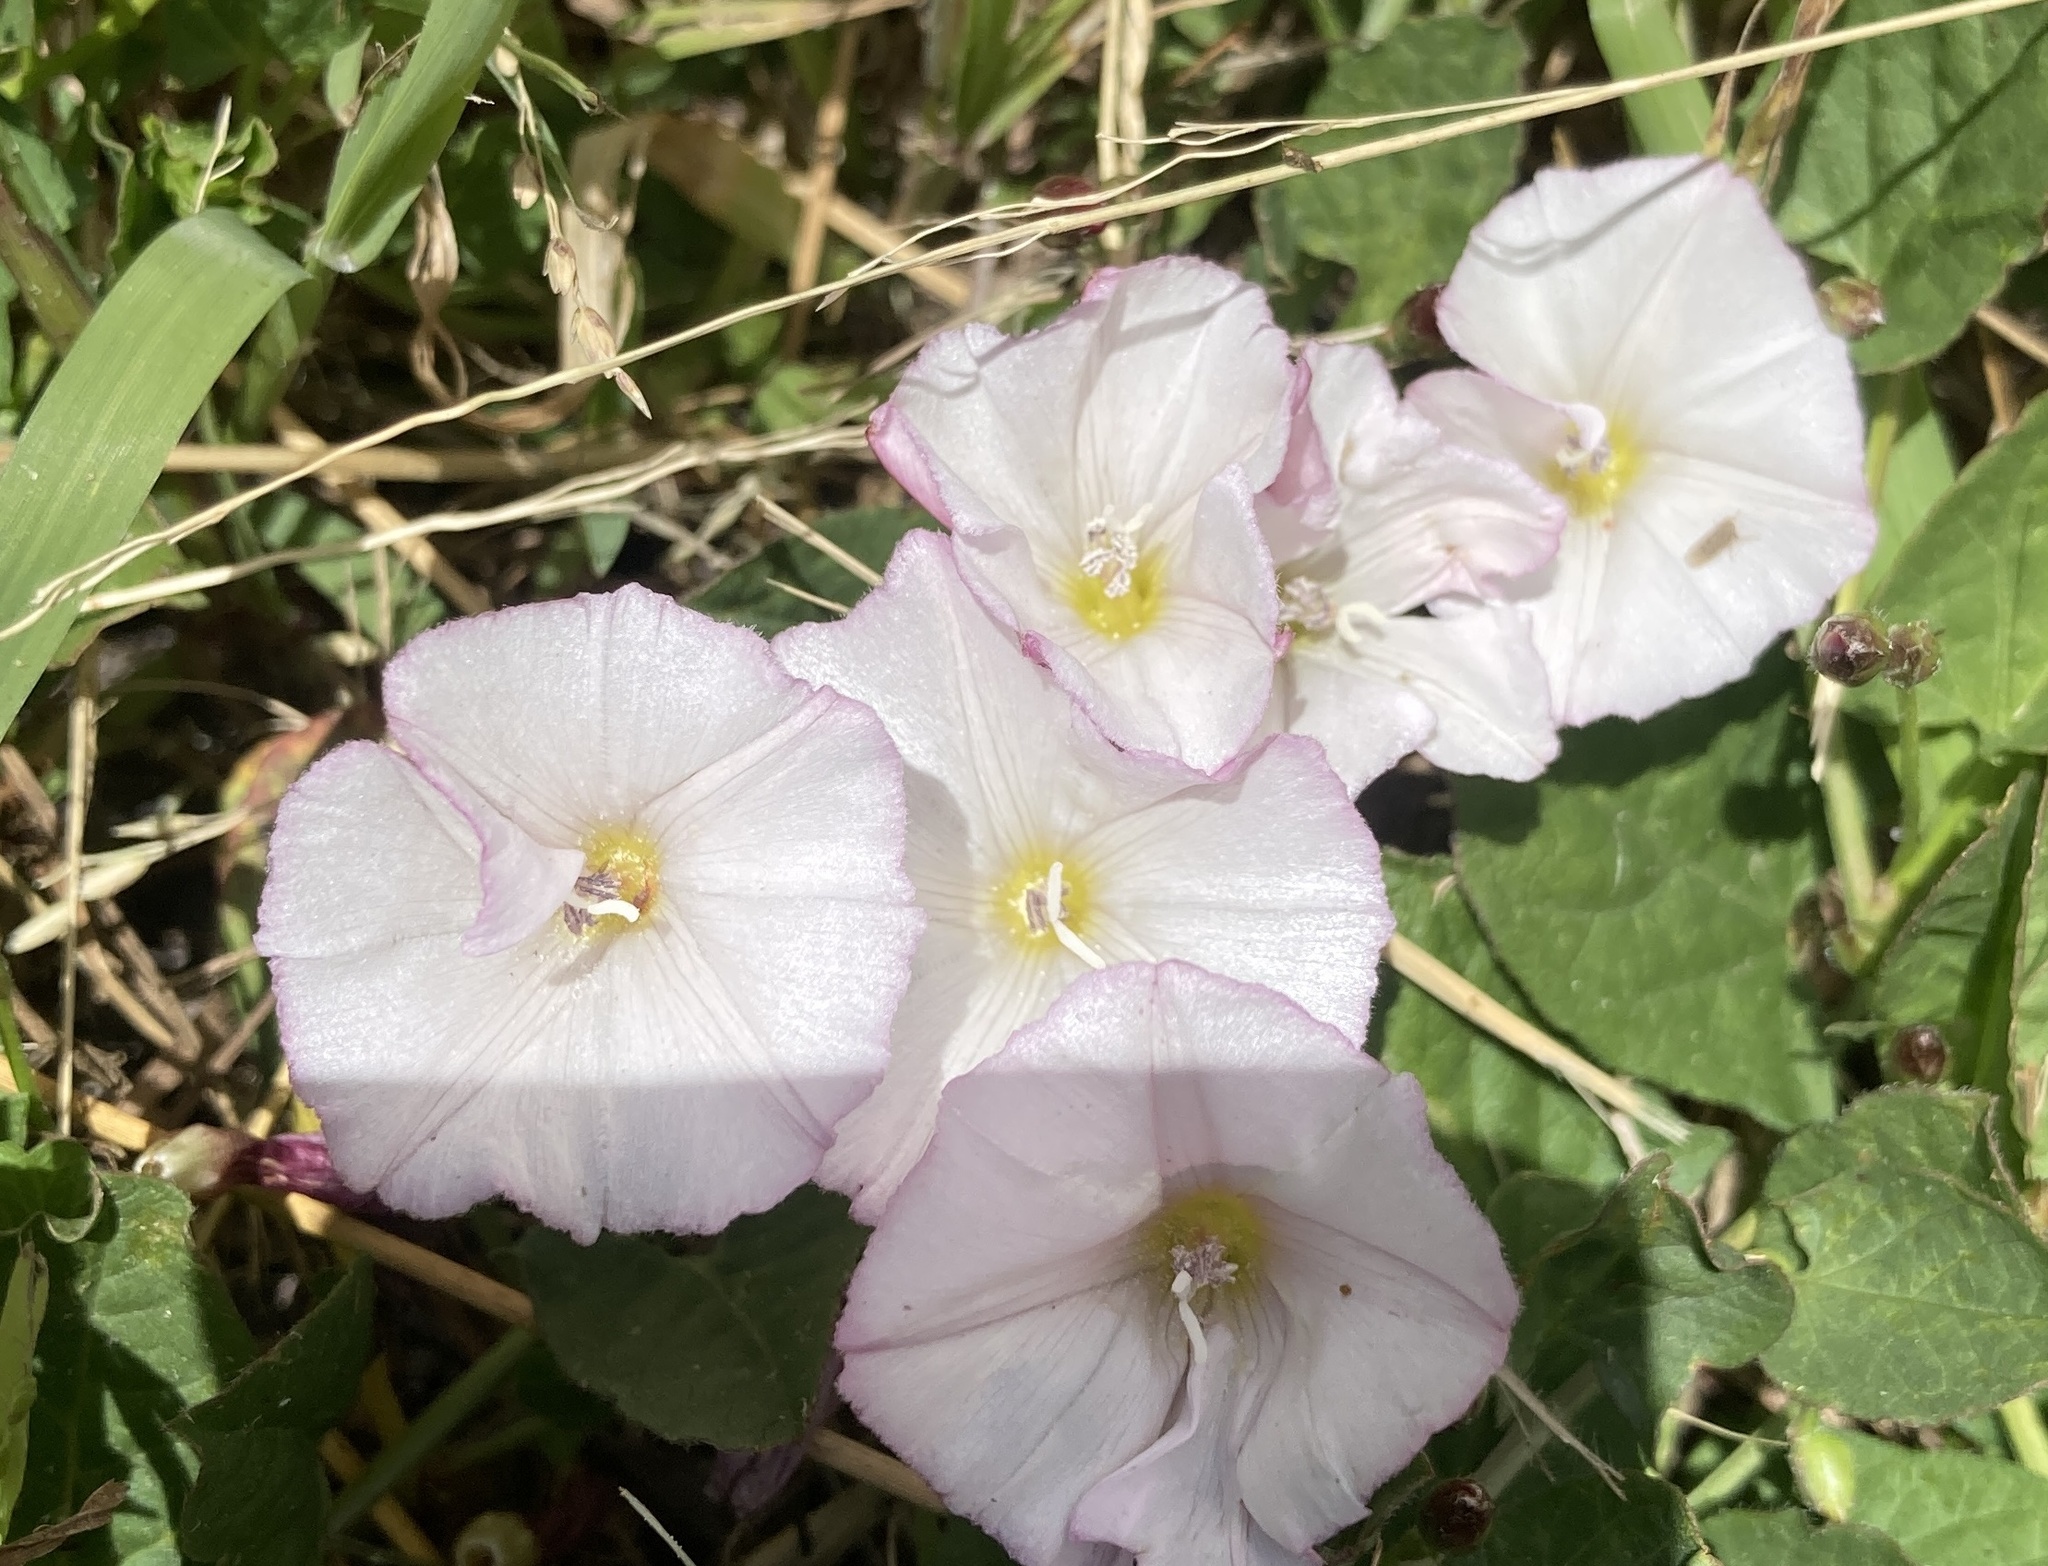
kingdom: Plantae
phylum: Tracheophyta
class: Magnoliopsida
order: Solanales
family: Convolvulaceae
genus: Convolvulus
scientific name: Convolvulus arvensis
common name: Field bindweed
